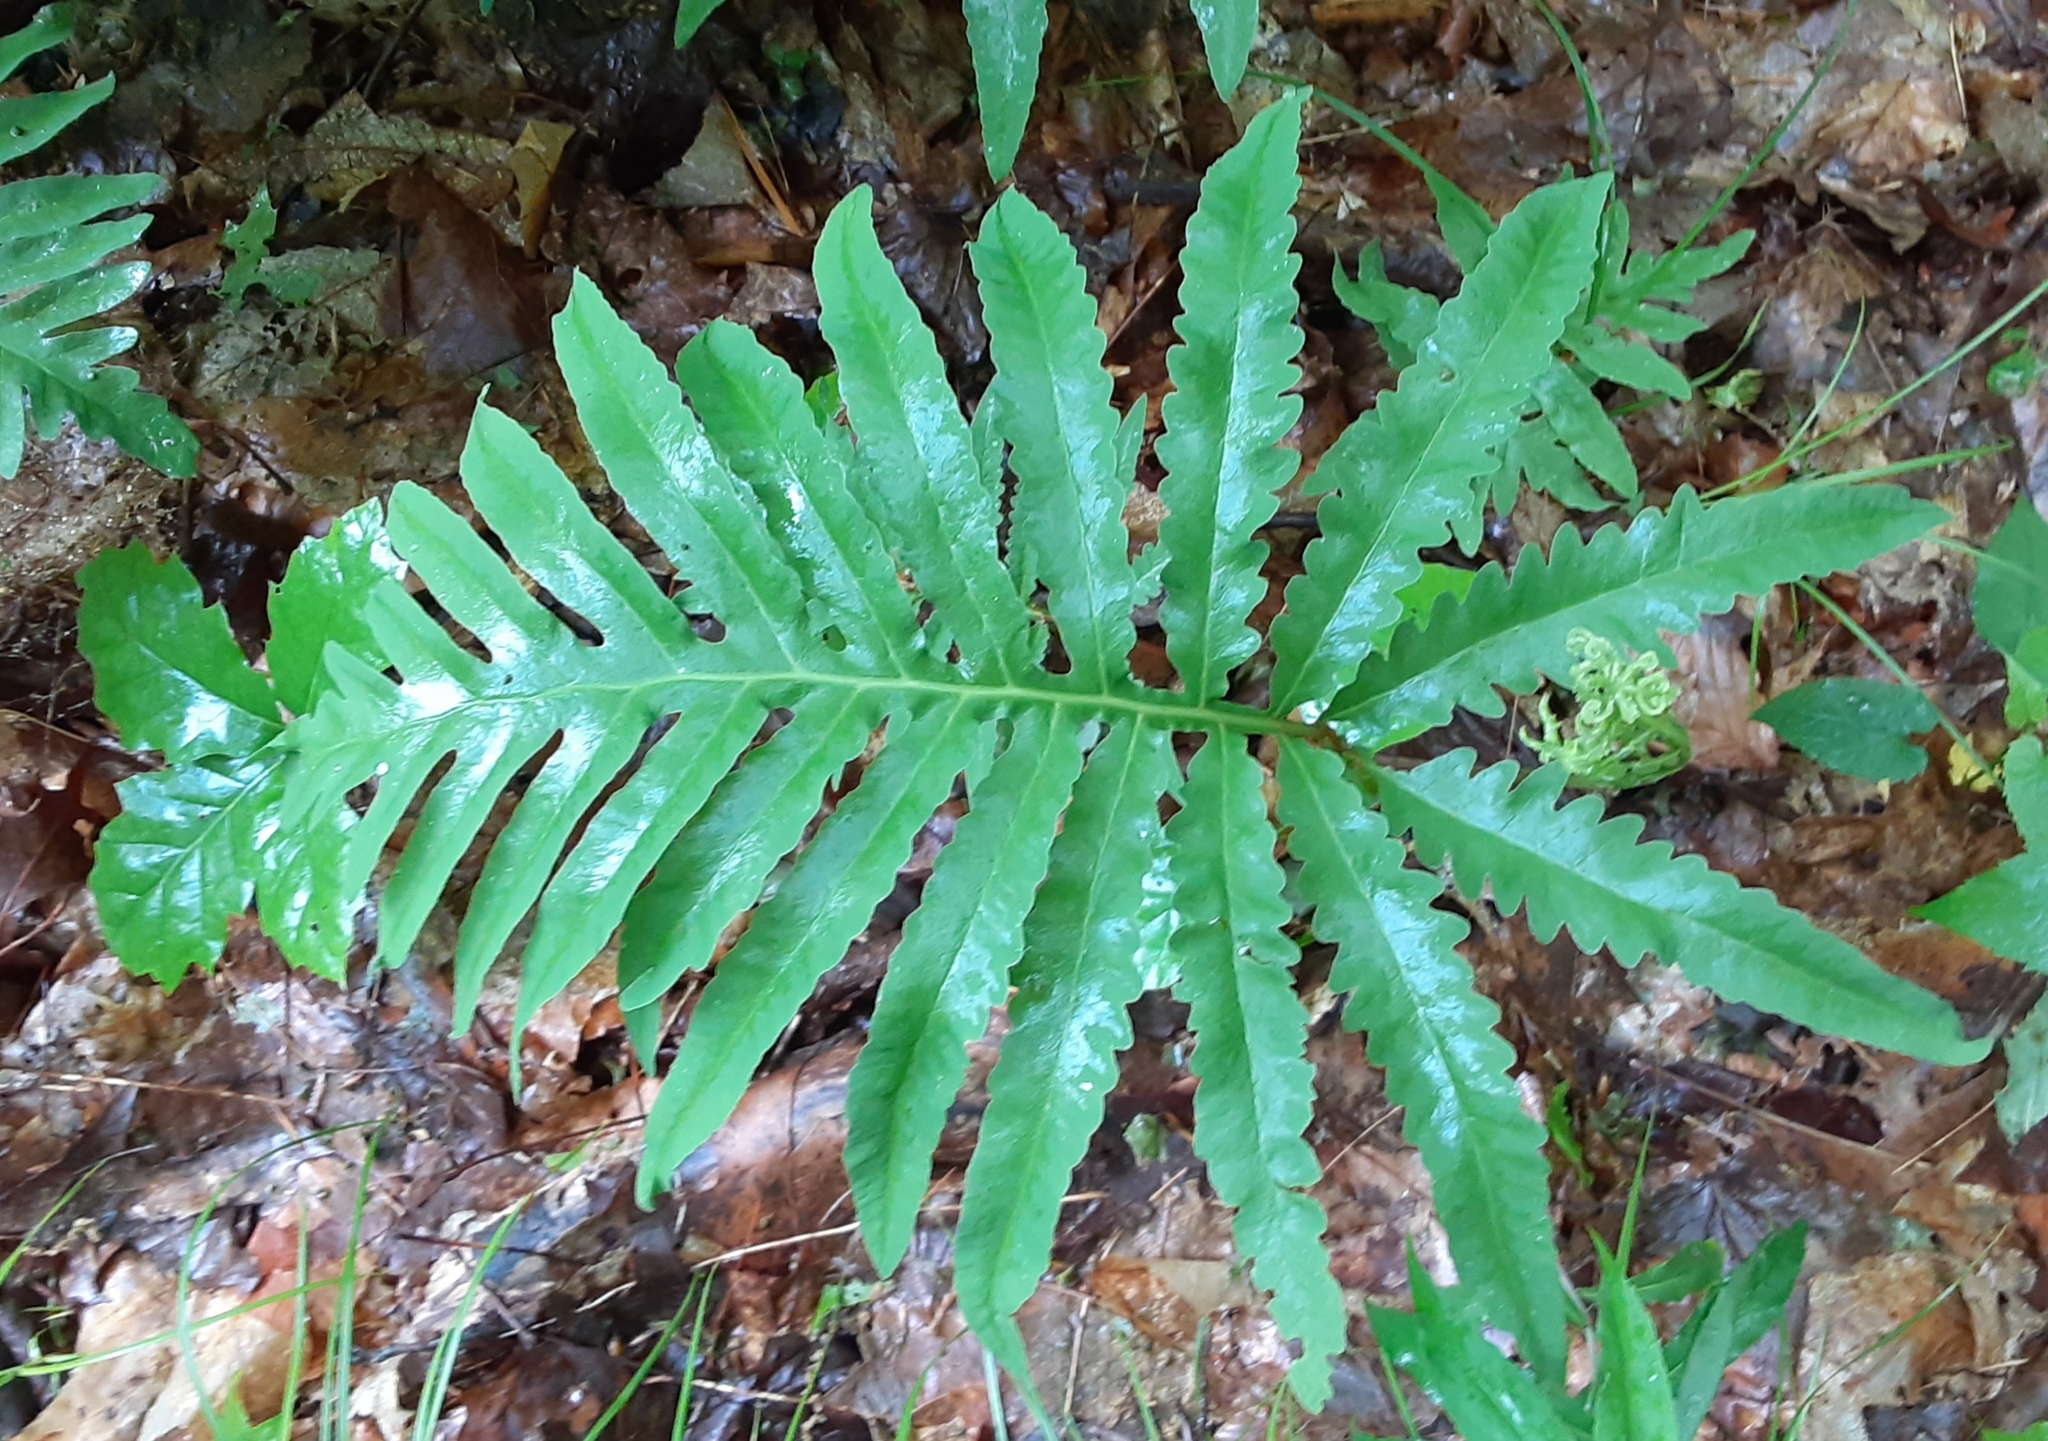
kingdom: Plantae
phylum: Tracheophyta
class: Polypodiopsida
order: Polypodiales
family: Onocleaceae
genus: Onoclea
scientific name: Onoclea sensibilis
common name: Sensitive fern
